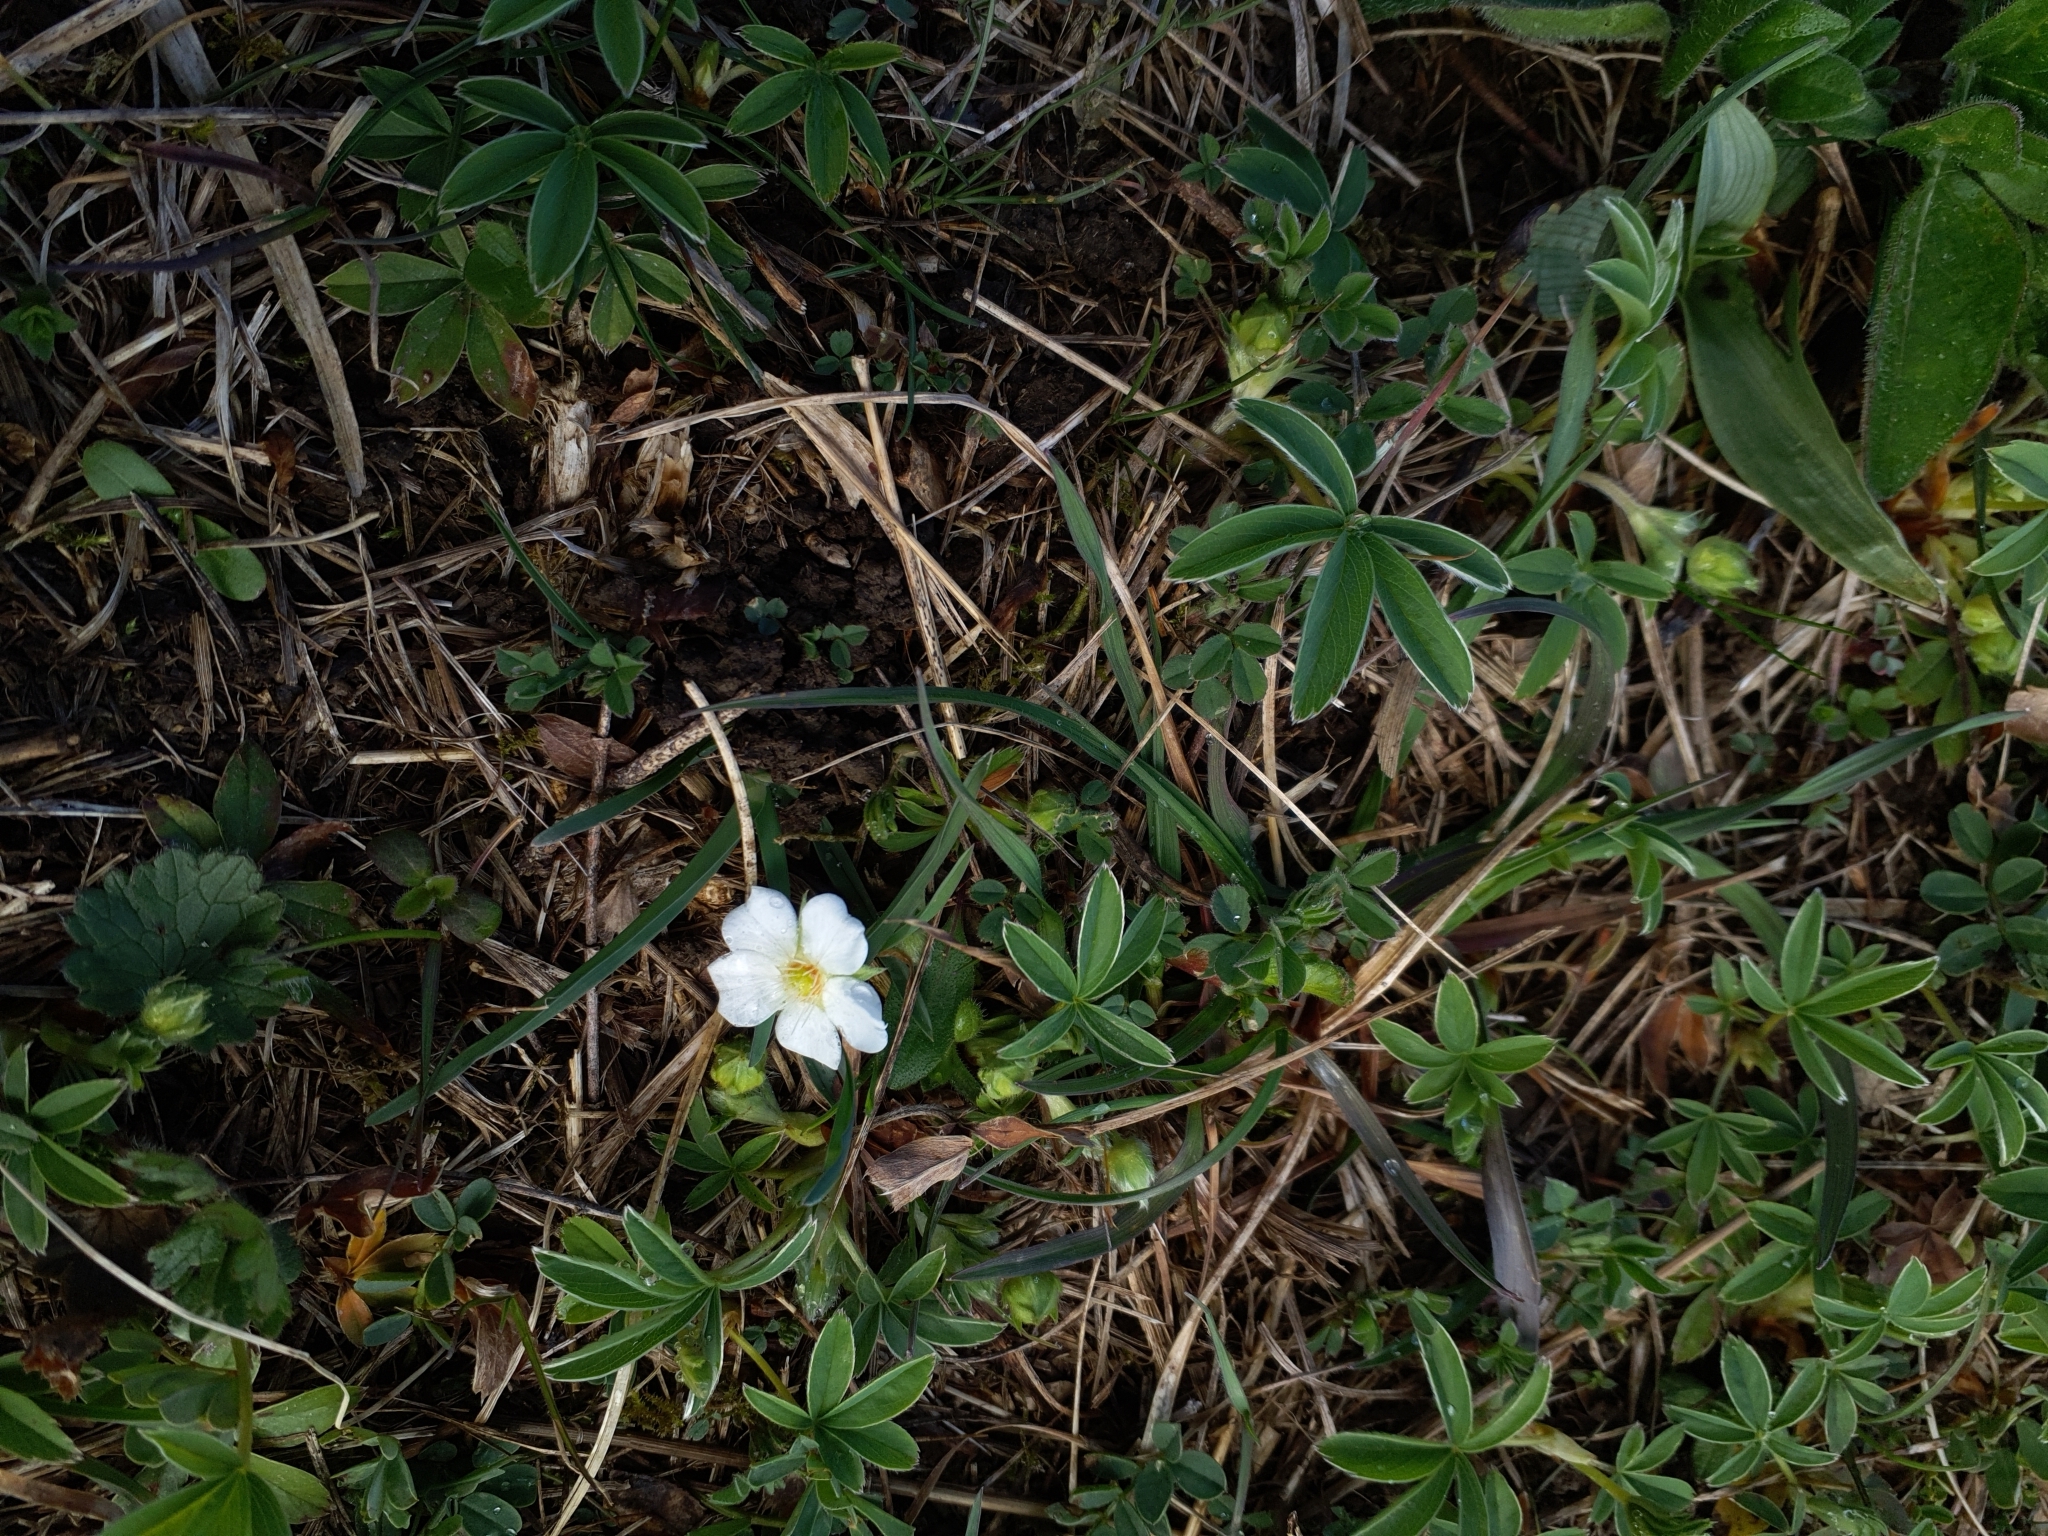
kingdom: Plantae
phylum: Tracheophyta
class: Magnoliopsida
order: Rosales
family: Rosaceae
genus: Potentilla
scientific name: Potentilla alba
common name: White cinquefoil
